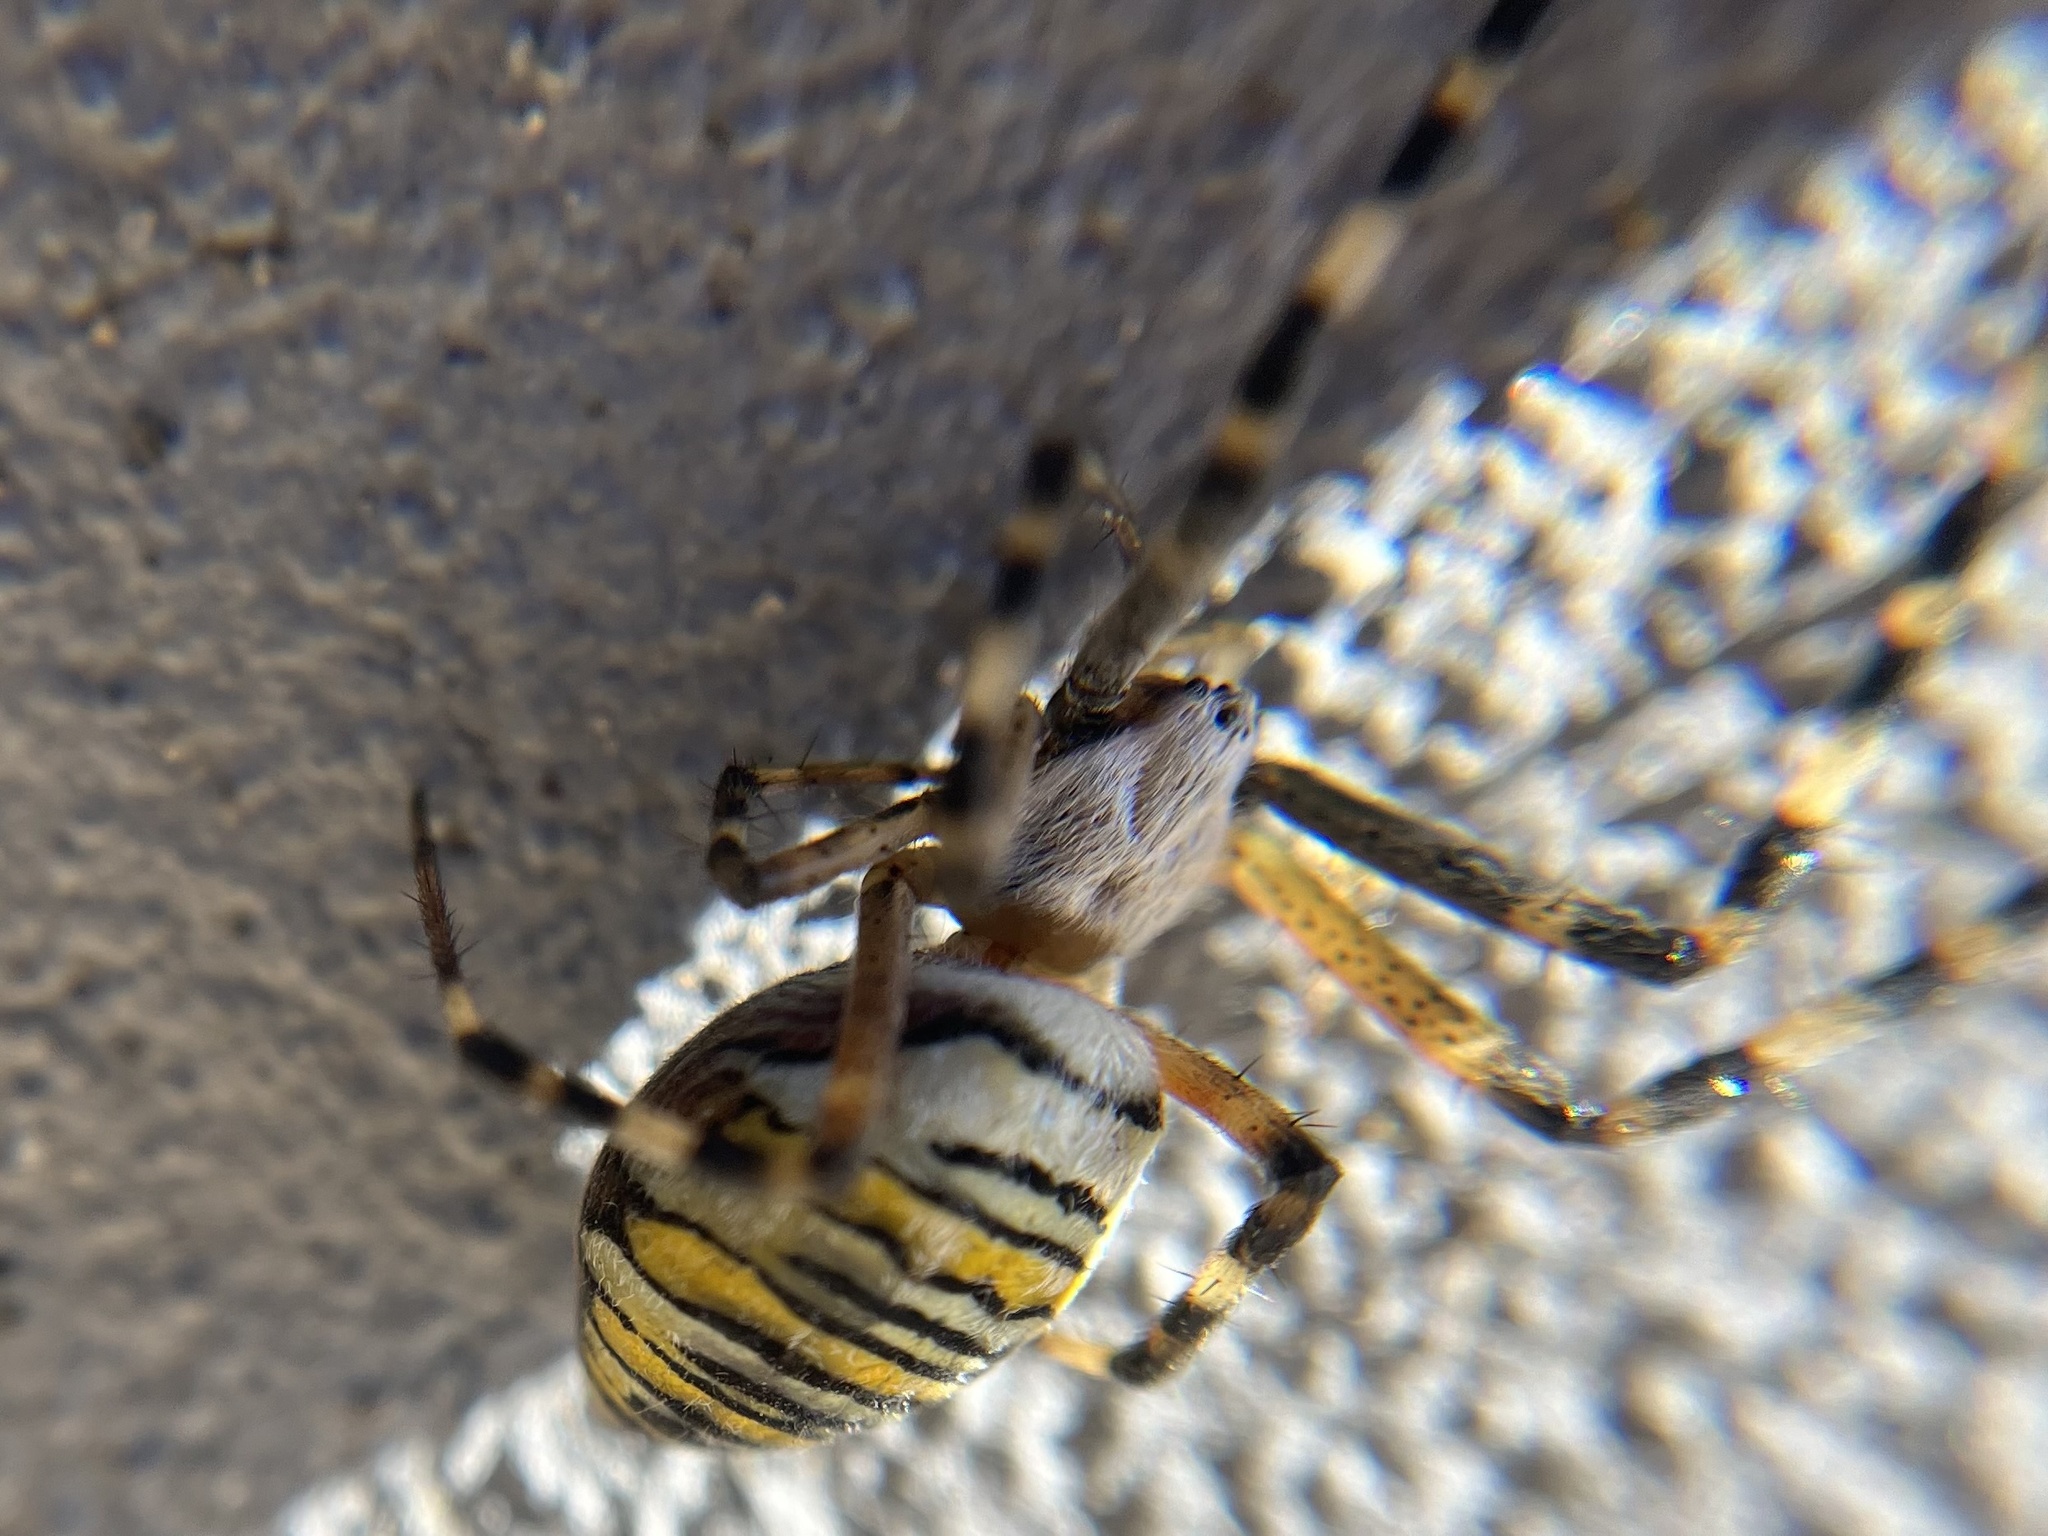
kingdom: Animalia
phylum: Arthropoda
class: Arachnida
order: Araneae
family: Araneidae
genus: Argiope
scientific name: Argiope bruennichi
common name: Wasp spider
